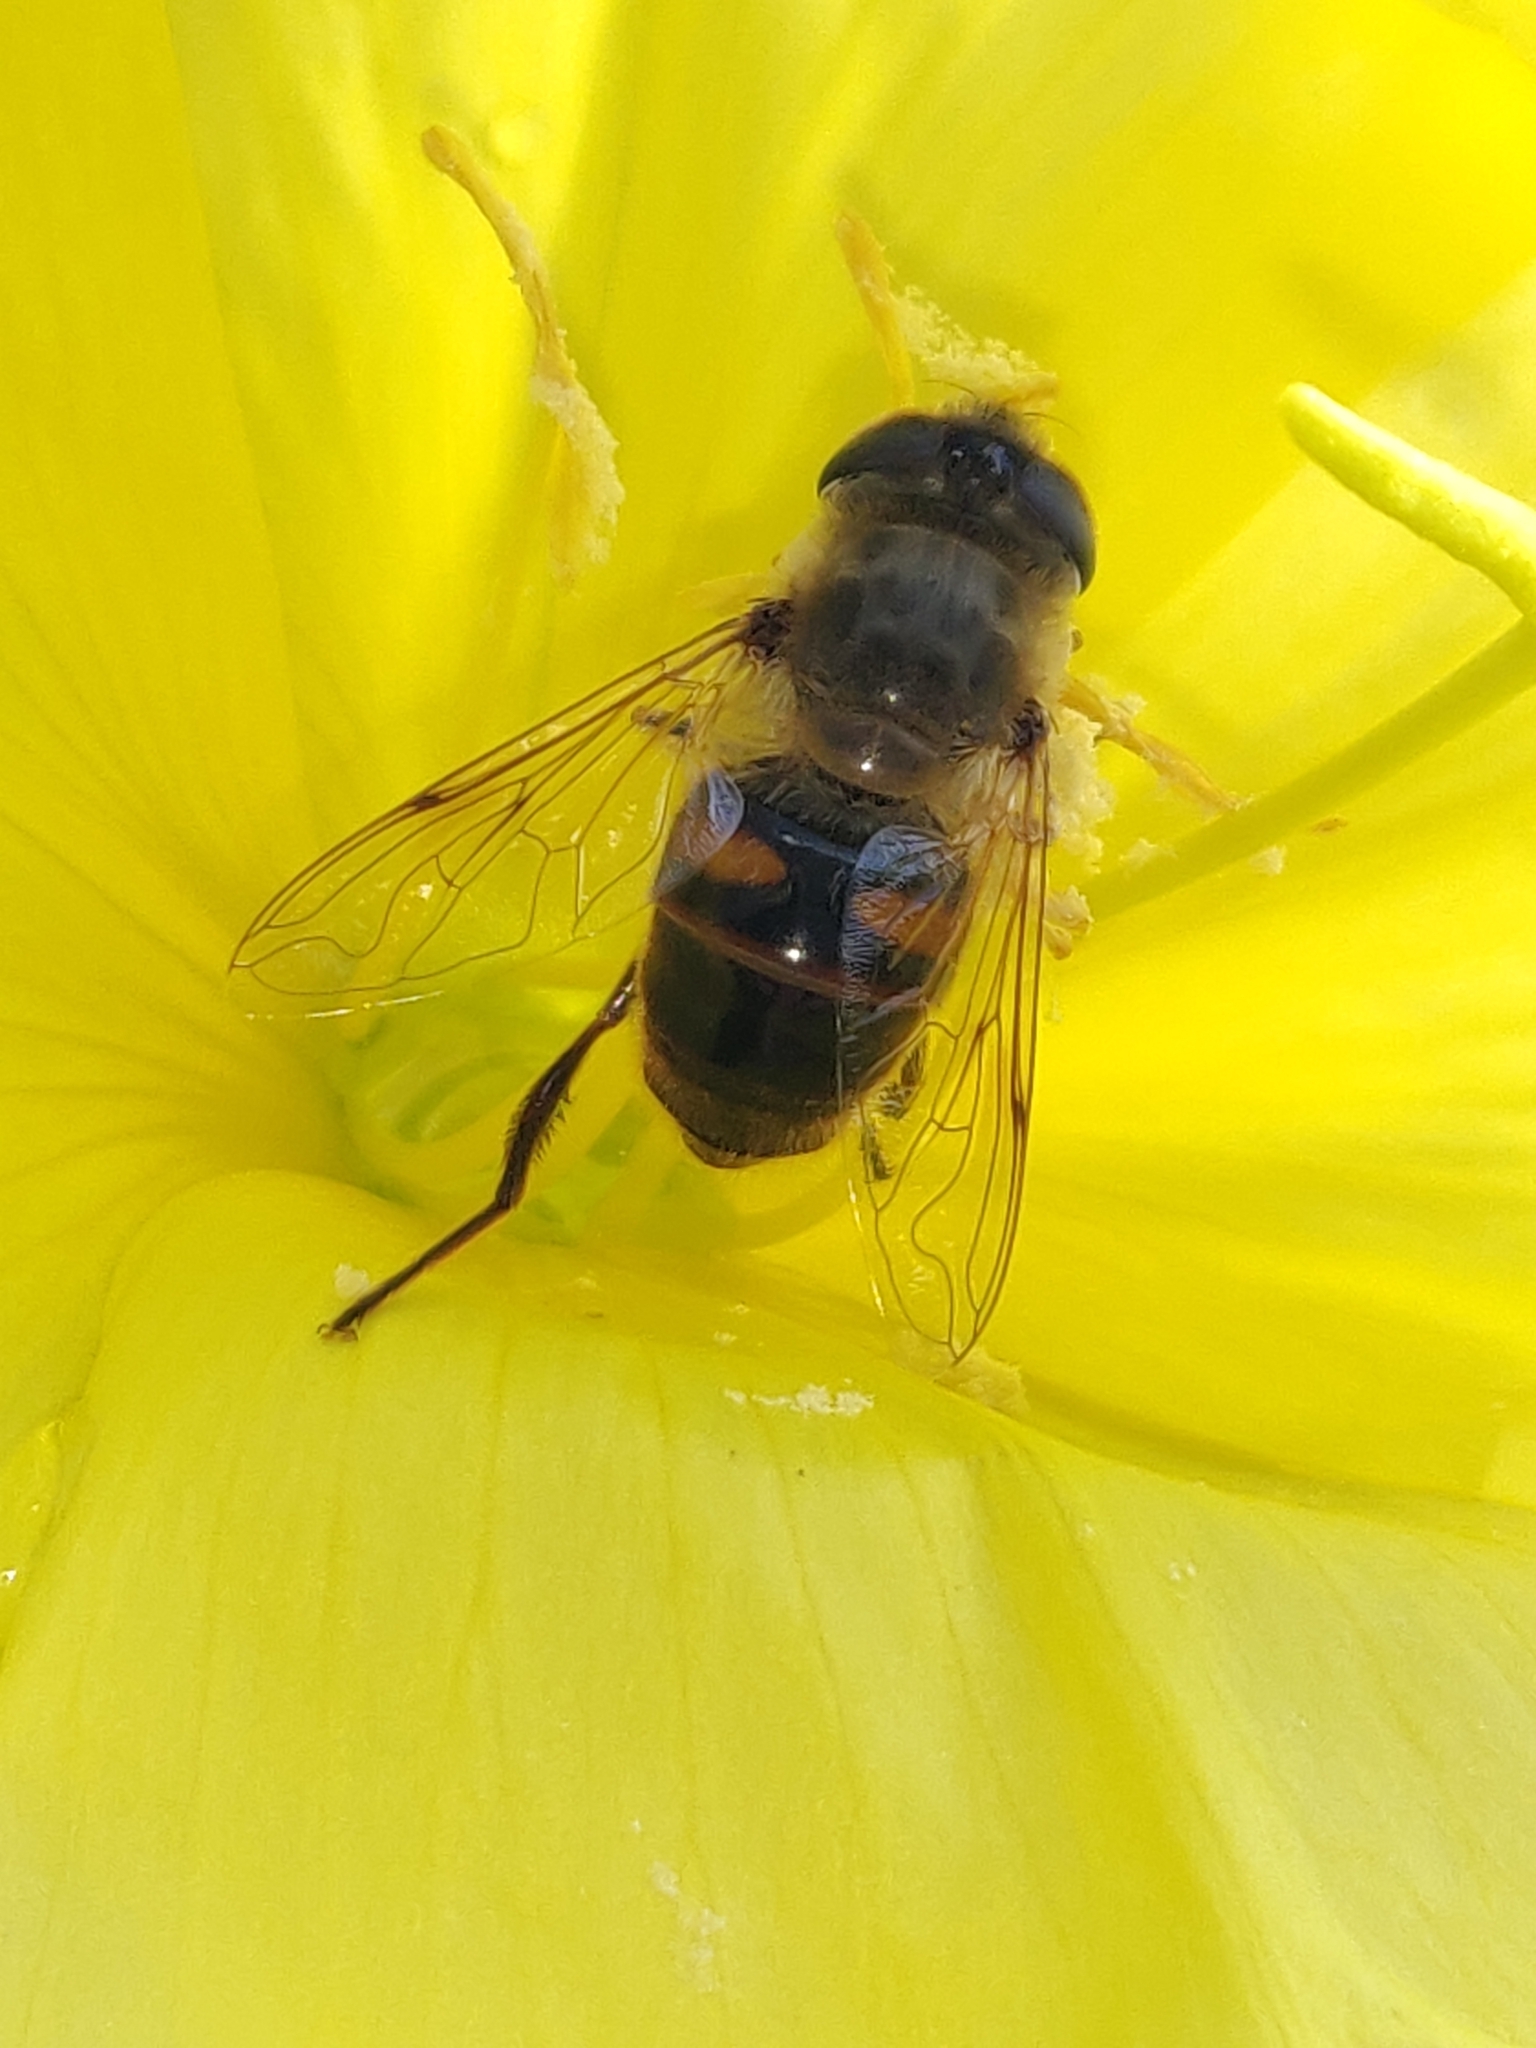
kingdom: Animalia
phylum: Arthropoda
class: Insecta
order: Diptera
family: Syrphidae
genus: Eristalis
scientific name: Eristalis tenax
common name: Drone fly
